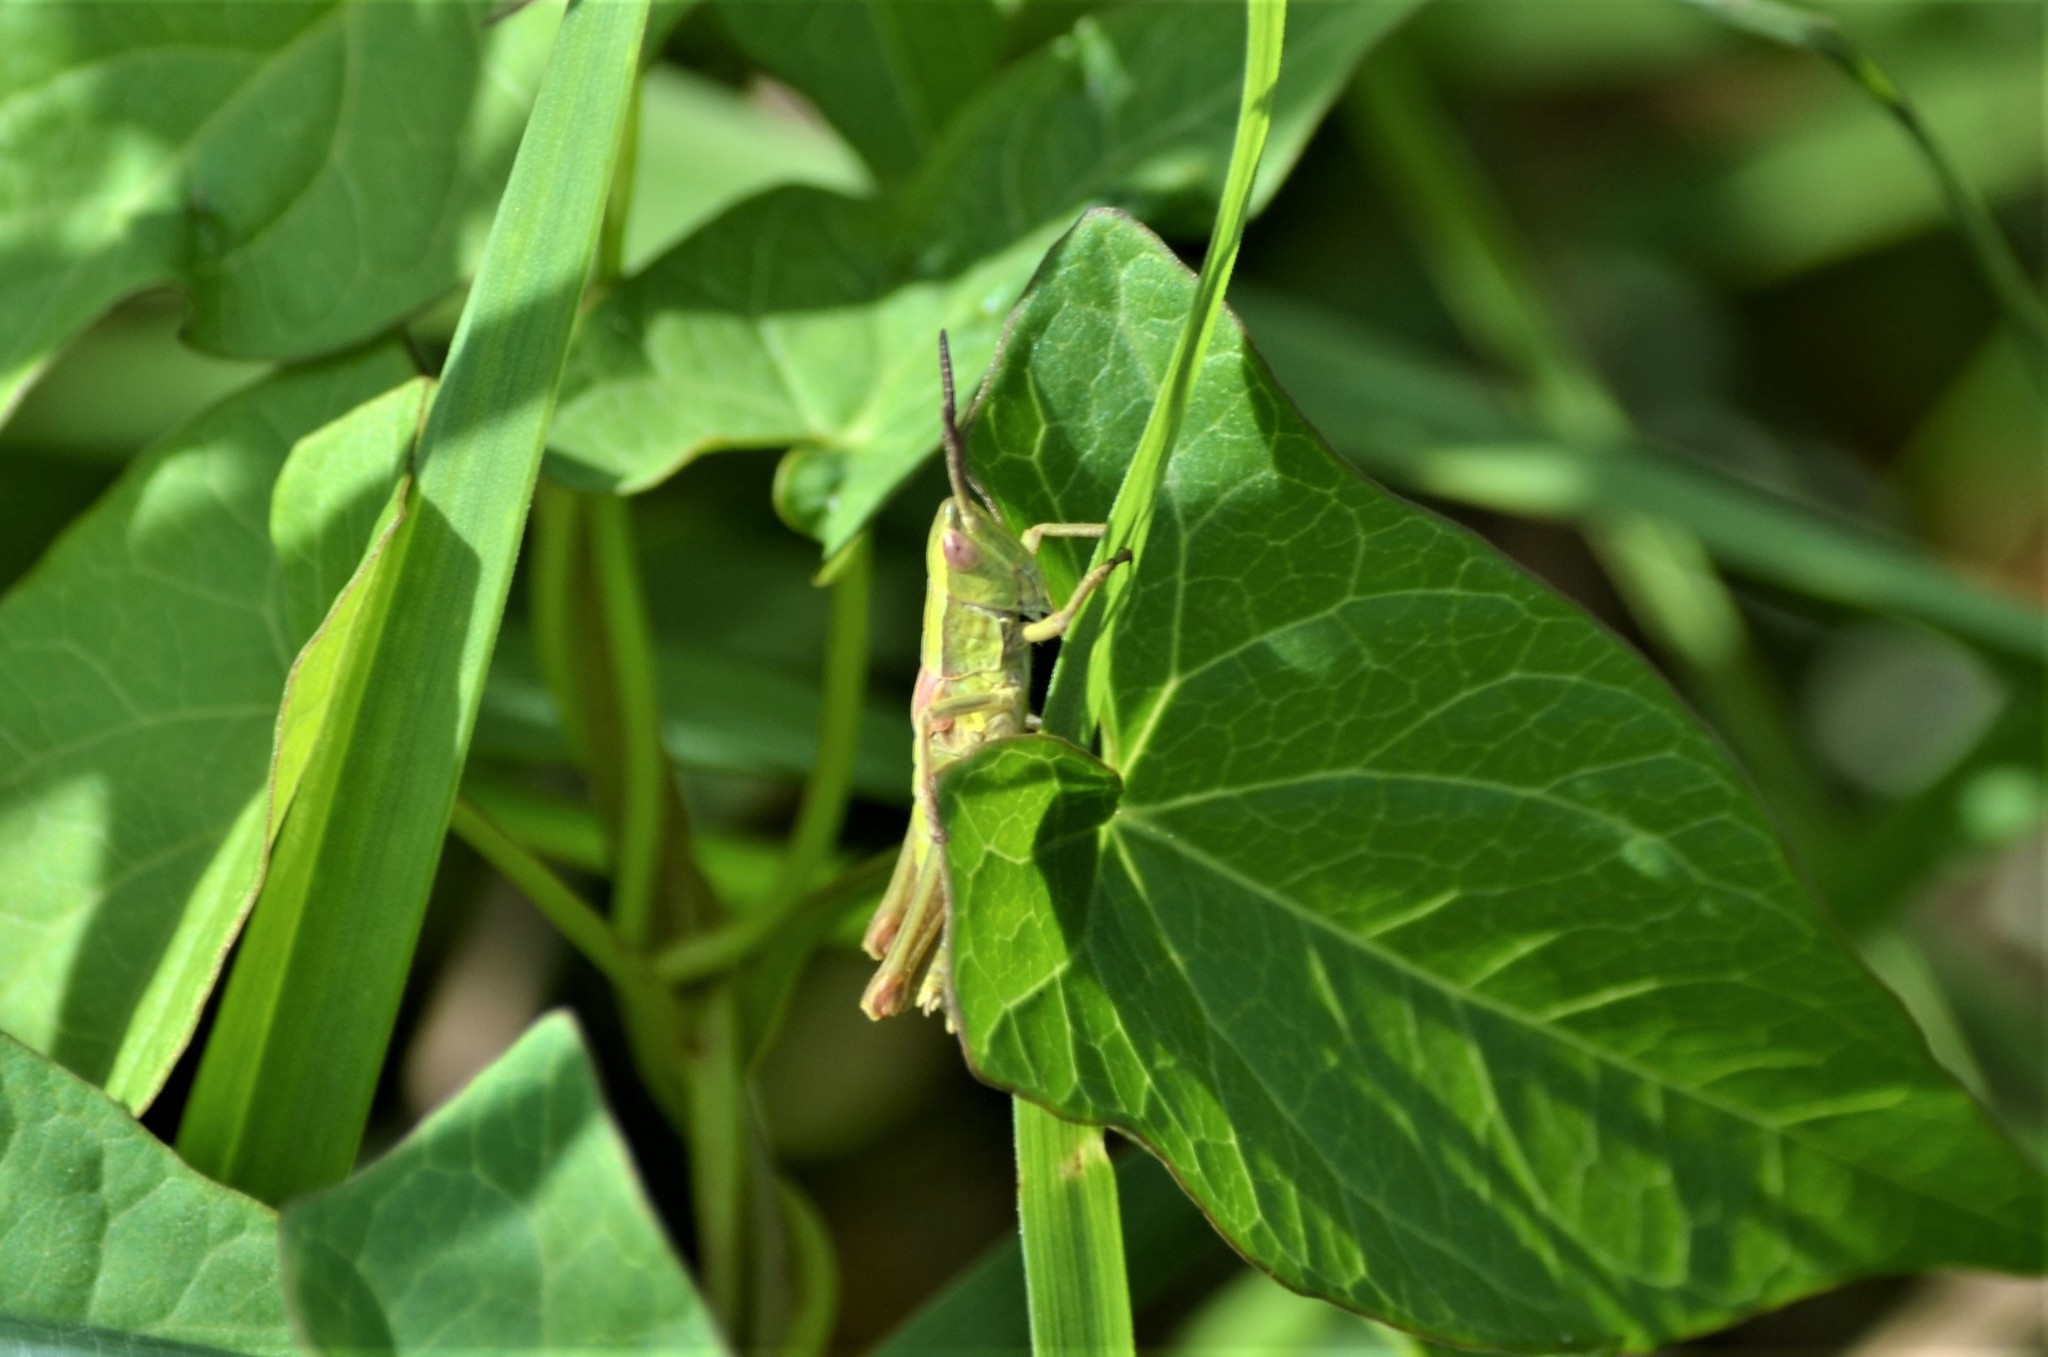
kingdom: Animalia
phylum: Arthropoda
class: Insecta
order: Orthoptera
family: Acrididae
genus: Euthystira
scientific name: Euthystira brachyptera
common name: Small gold grasshopper
